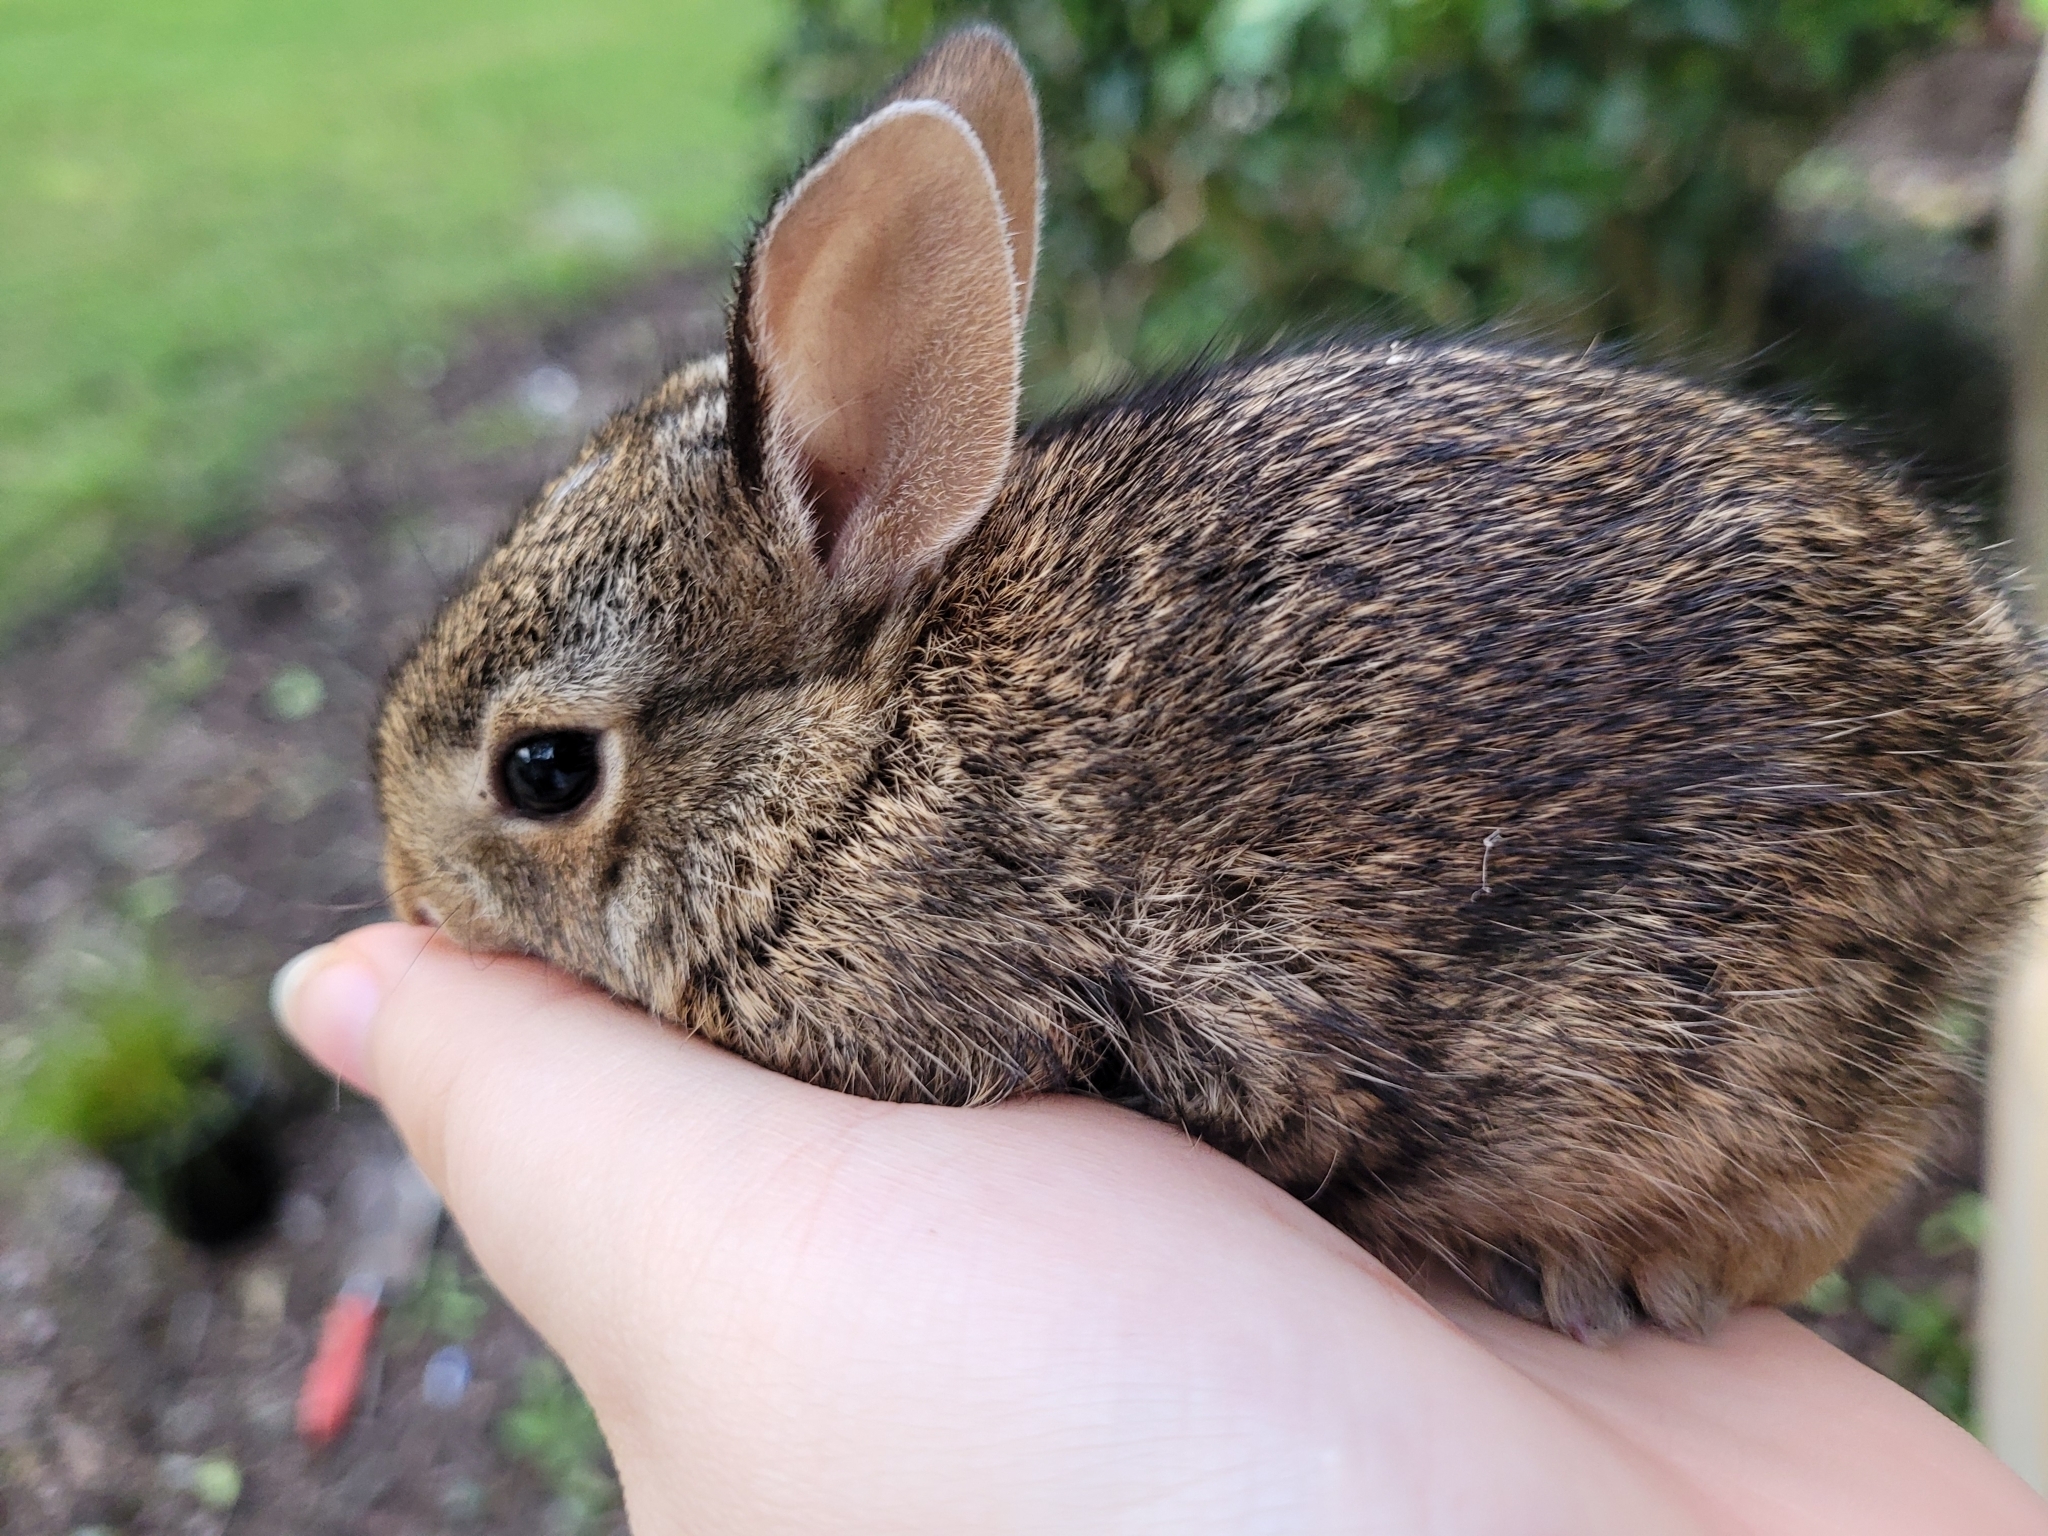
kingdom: Animalia
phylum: Chordata
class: Mammalia
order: Lagomorpha
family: Leporidae
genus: Sylvilagus
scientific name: Sylvilagus floridanus
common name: Eastern cottontail
